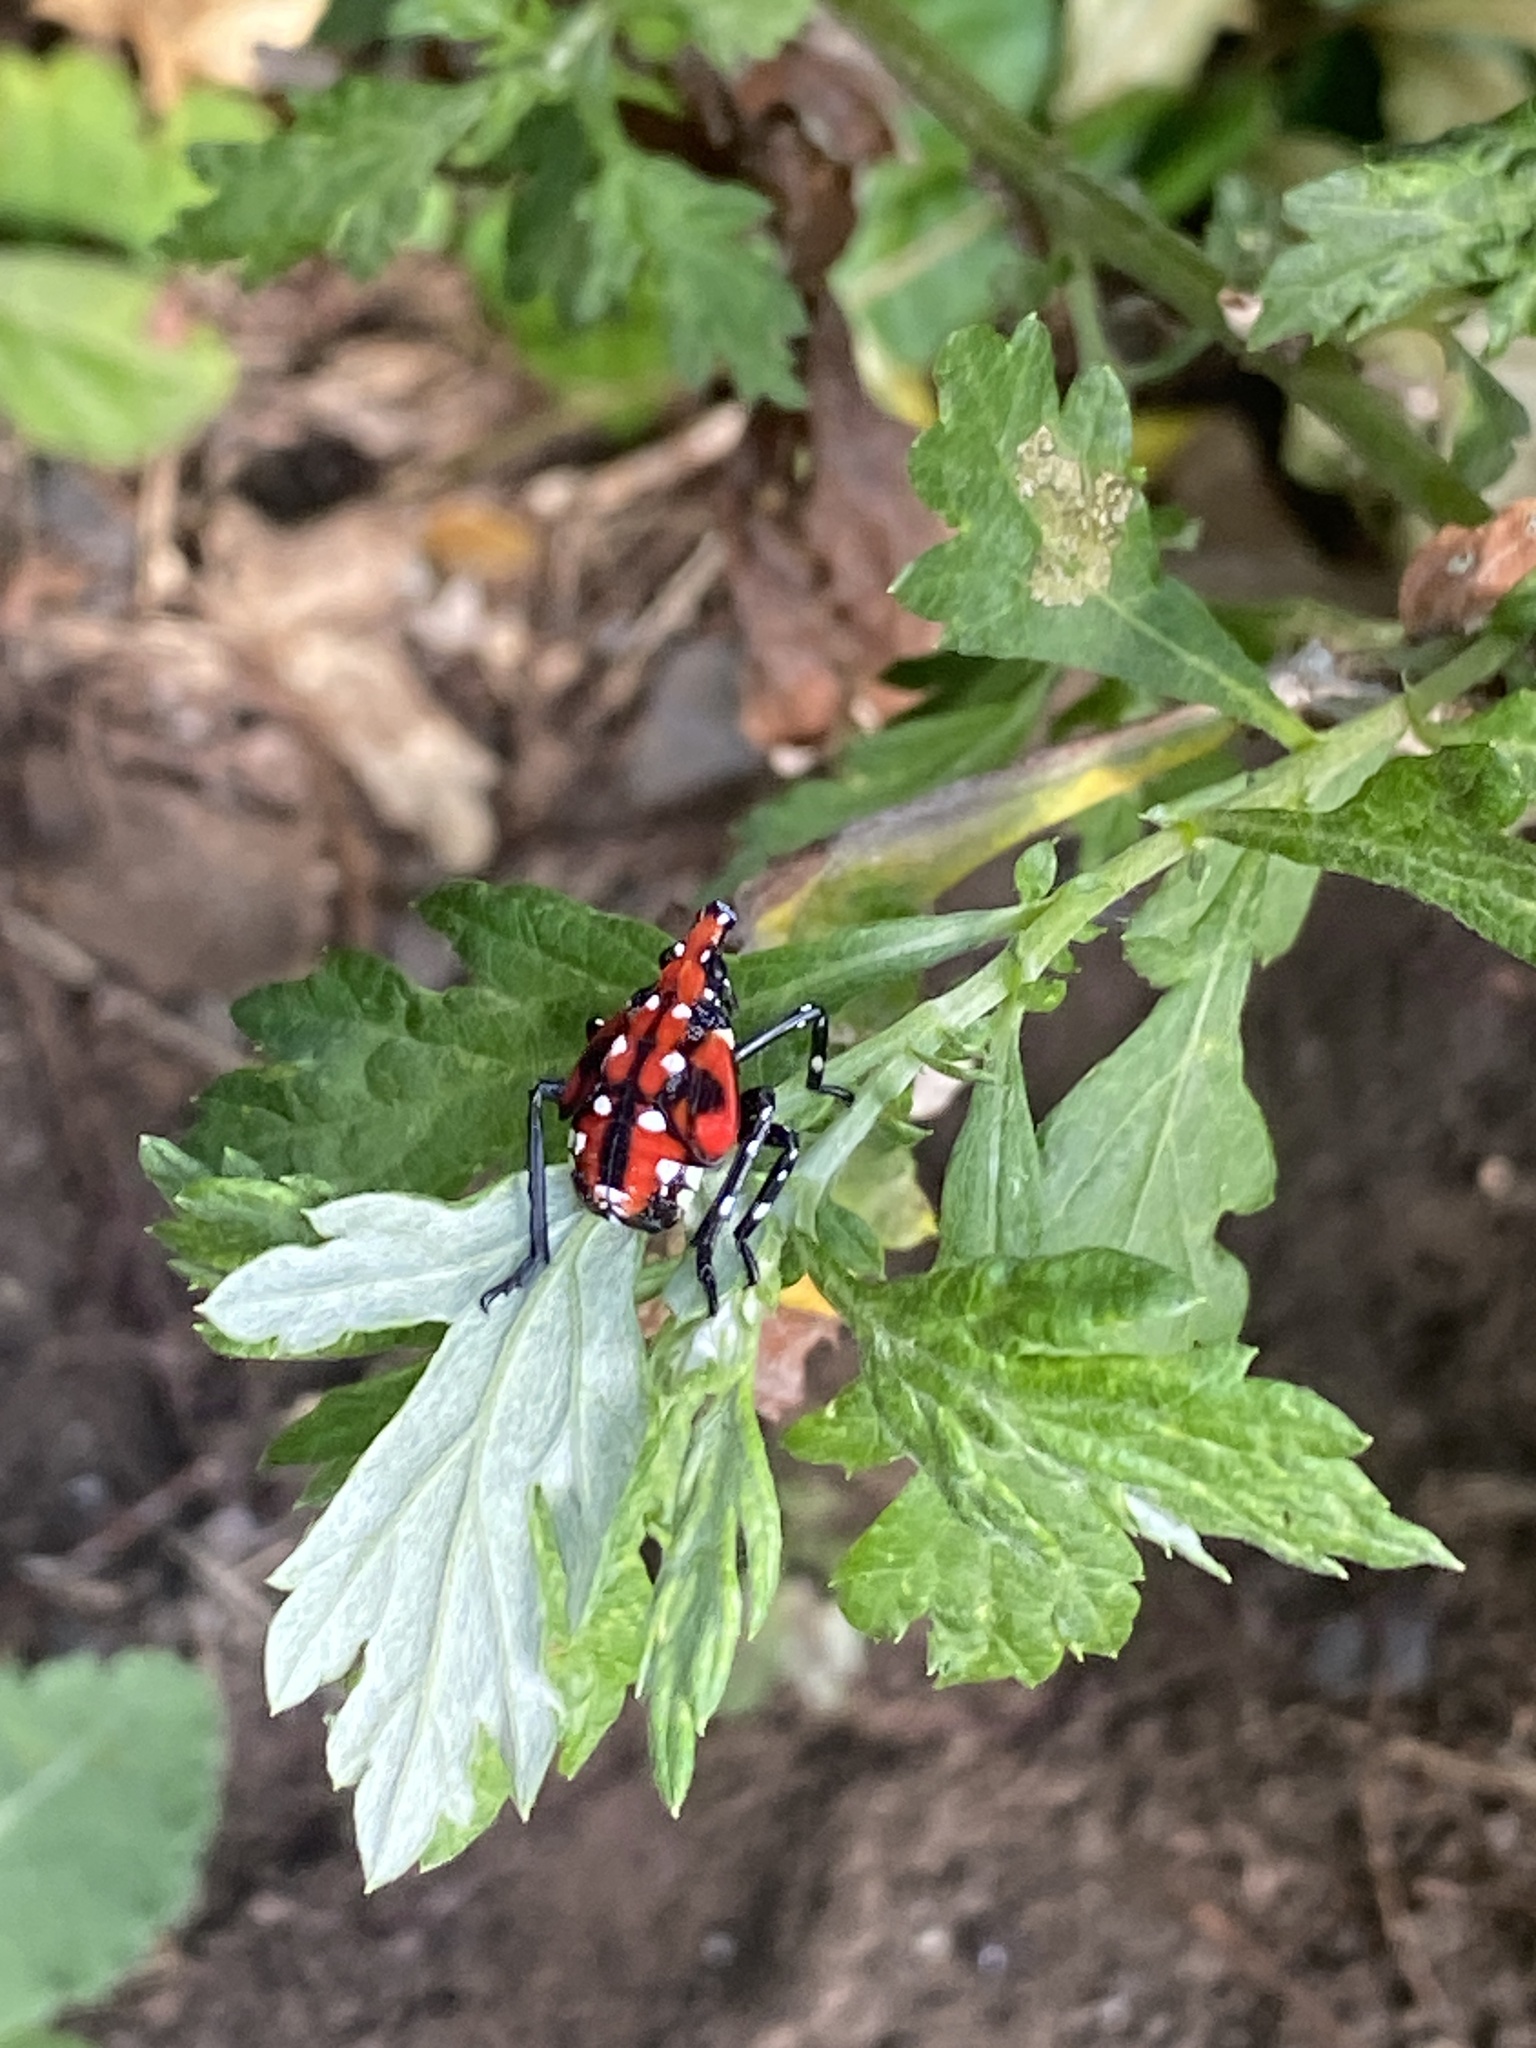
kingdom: Animalia
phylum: Arthropoda
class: Insecta
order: Hemiptera
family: Fulgoridae
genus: Lycorma
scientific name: Lycorma delicatula
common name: Spotted lanternfly
